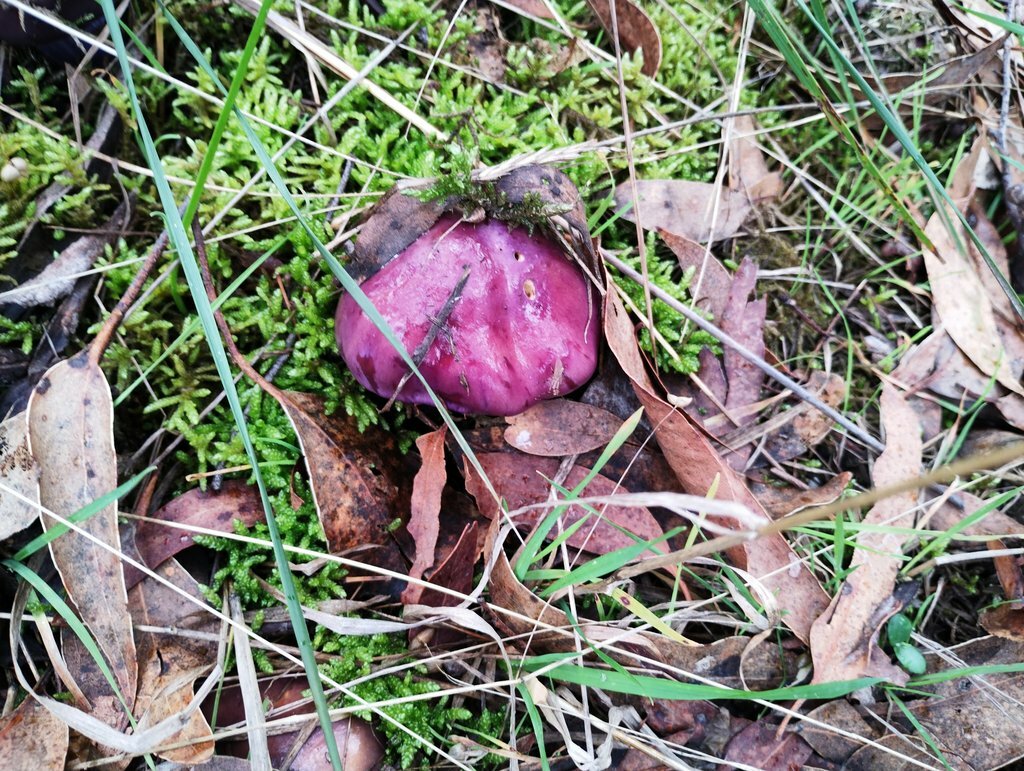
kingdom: Fungi
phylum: Basidiomycota
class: Agaricomycetes
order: Agaricales
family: Cortinariaceae
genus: Cortinarius
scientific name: Cortinarius archeri
